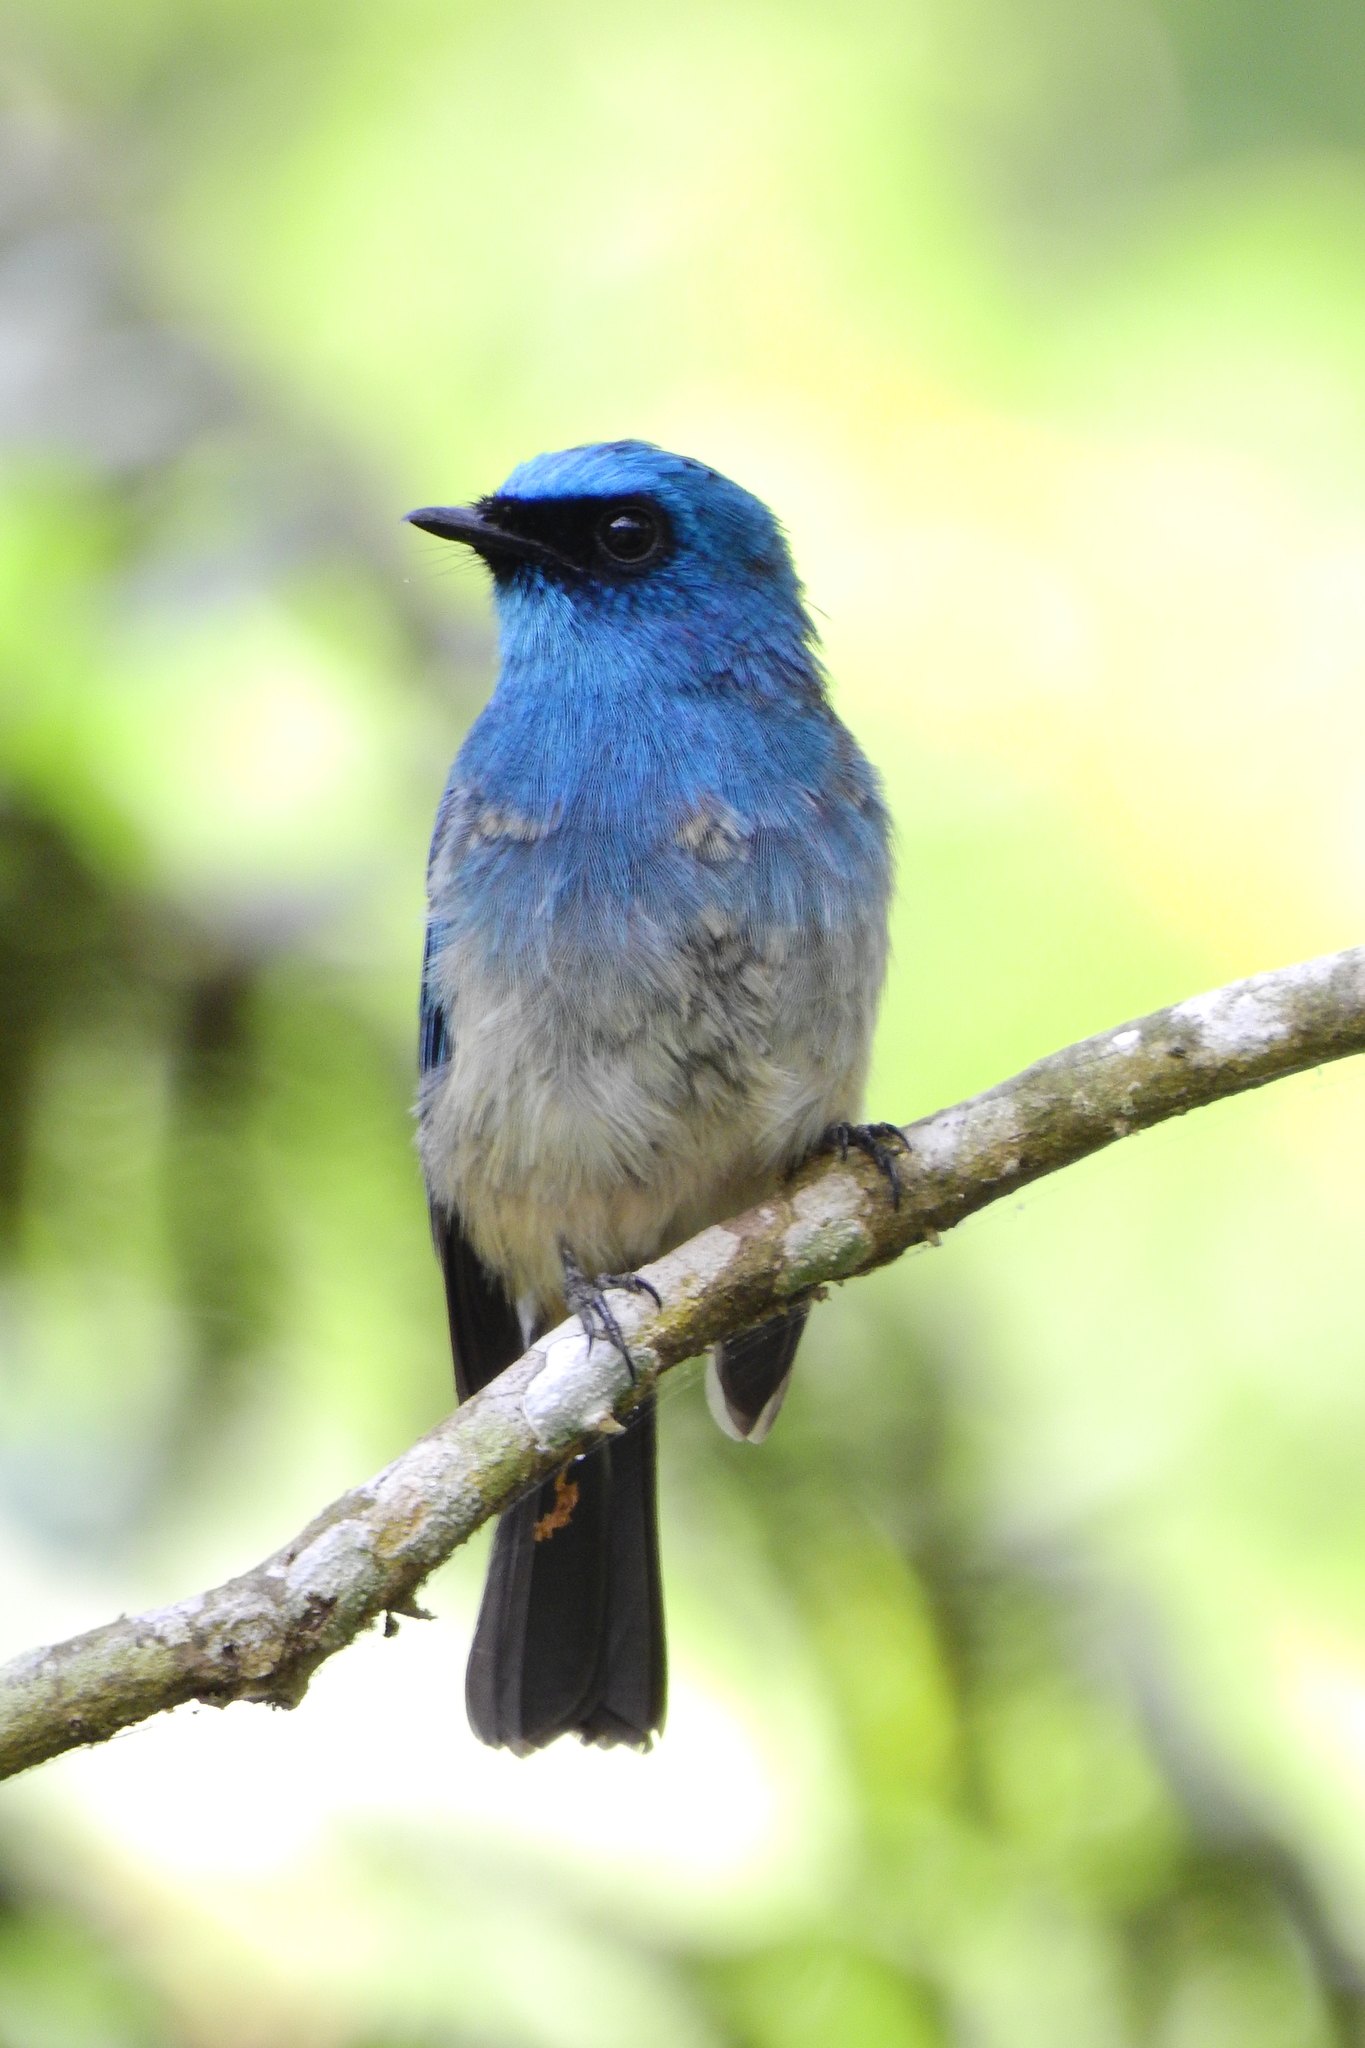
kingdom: Animalia
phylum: Chordata
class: Aves
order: Passeriformes
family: Muscicapidae
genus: Eumyias
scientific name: Eumyias indigo
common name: Indigo flycatcher
